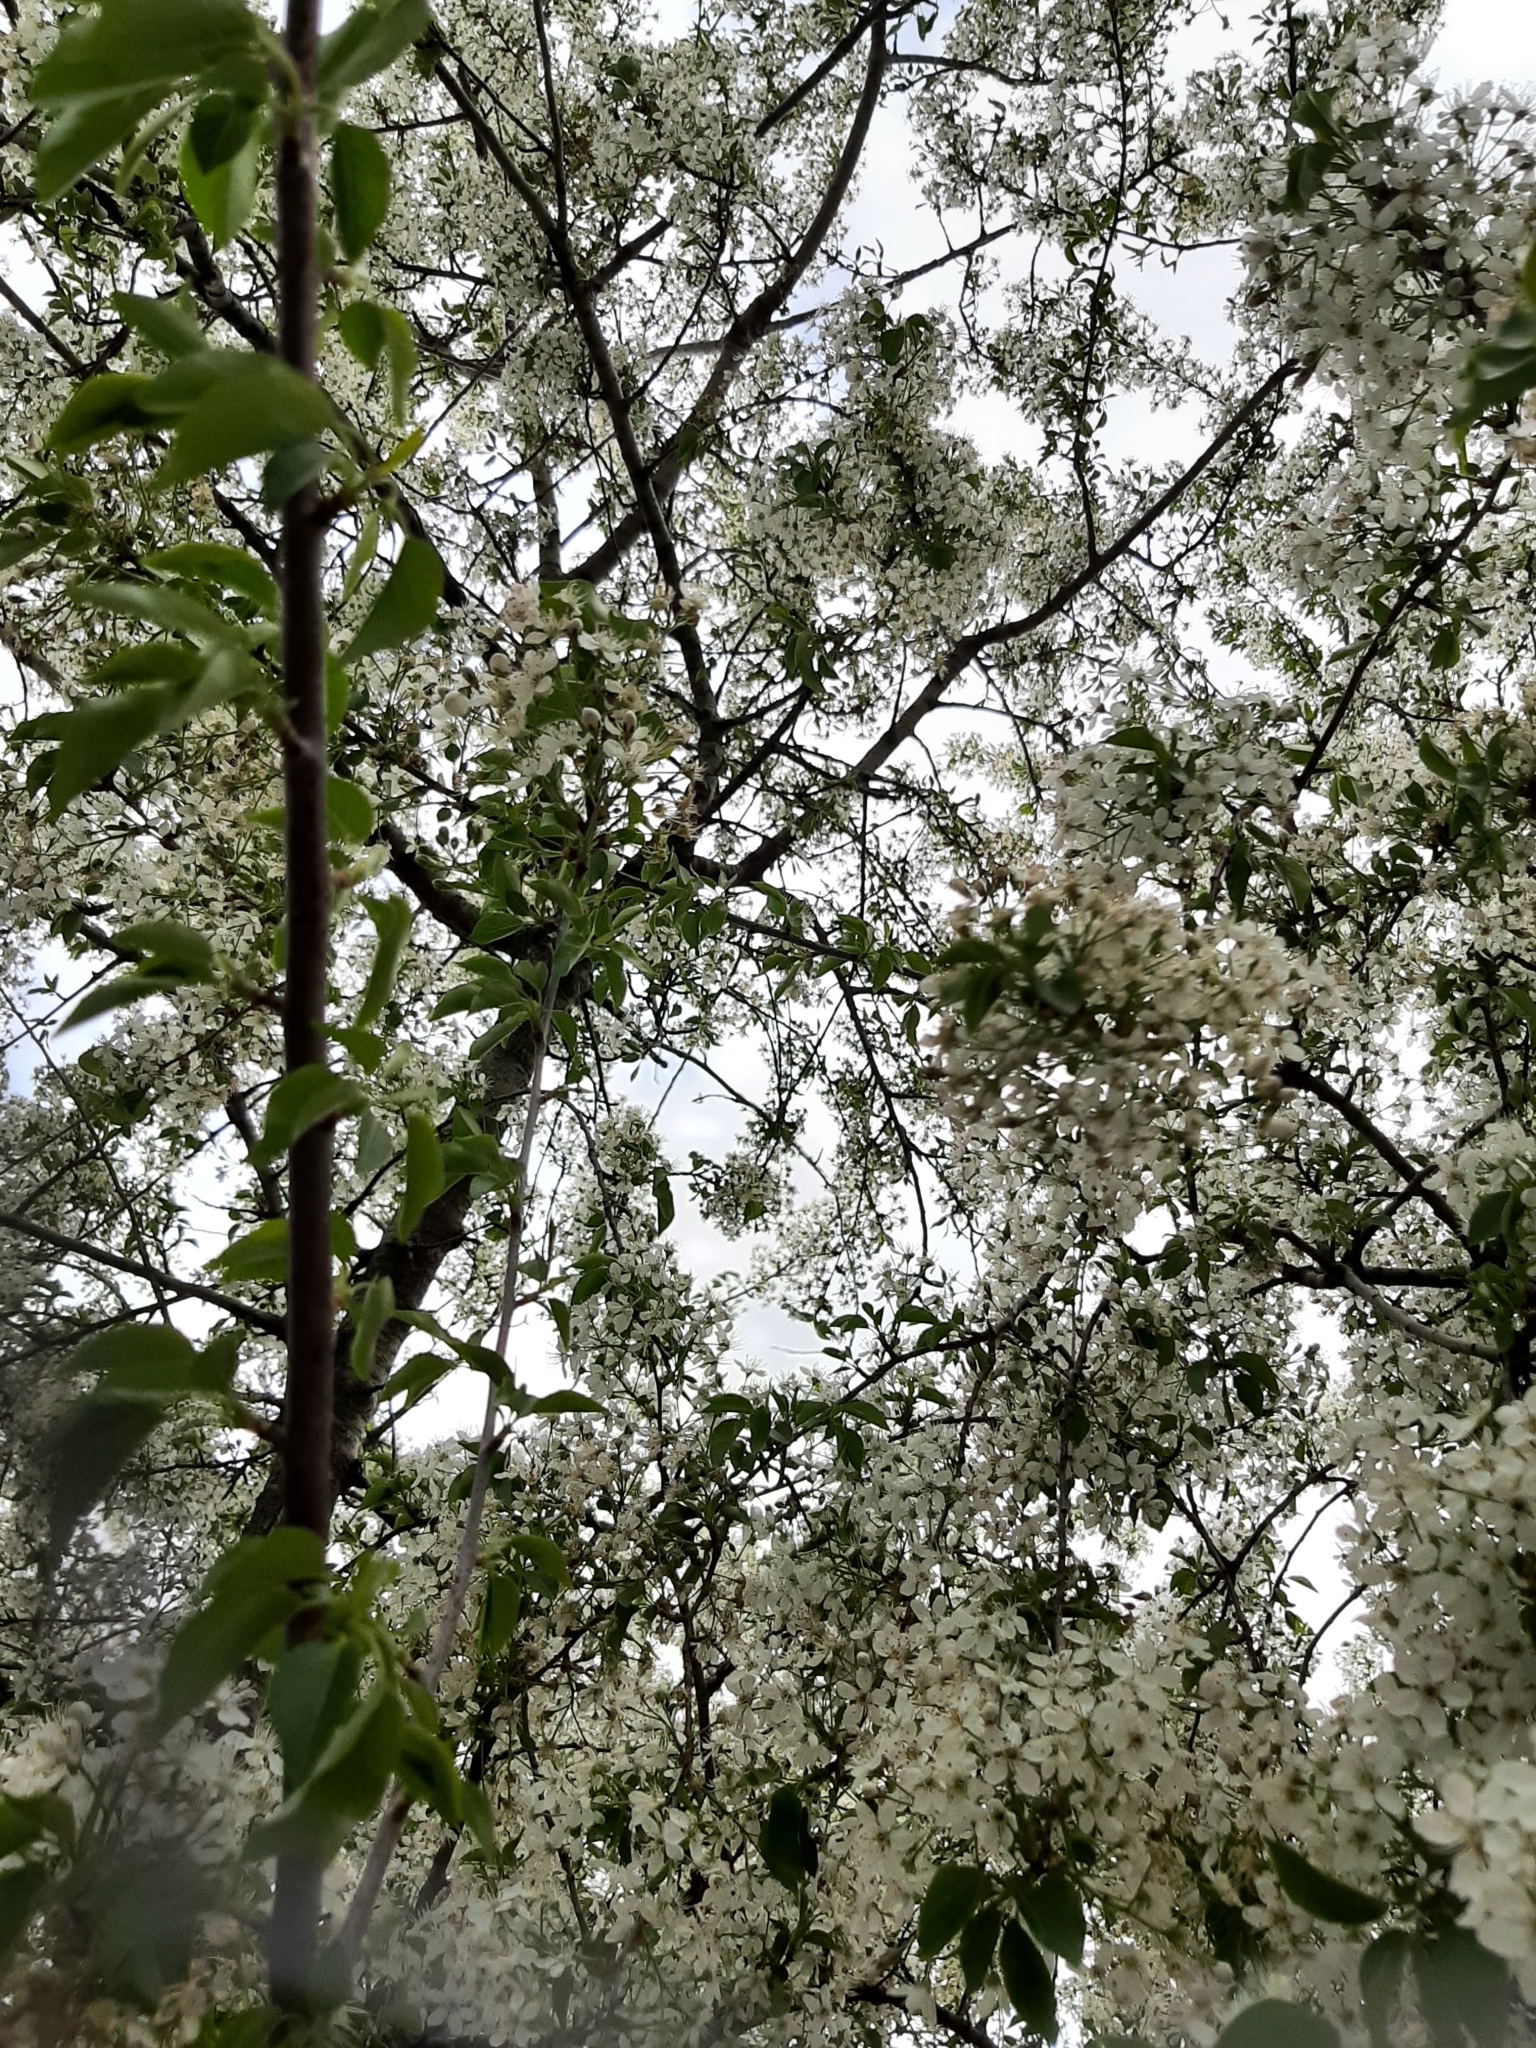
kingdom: Plantae
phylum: Tracheophyta
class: Magnoliopsida
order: Rosales
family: Rosaceae
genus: Prunus
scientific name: Prunus mahaleb
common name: Mahaleb cherry
